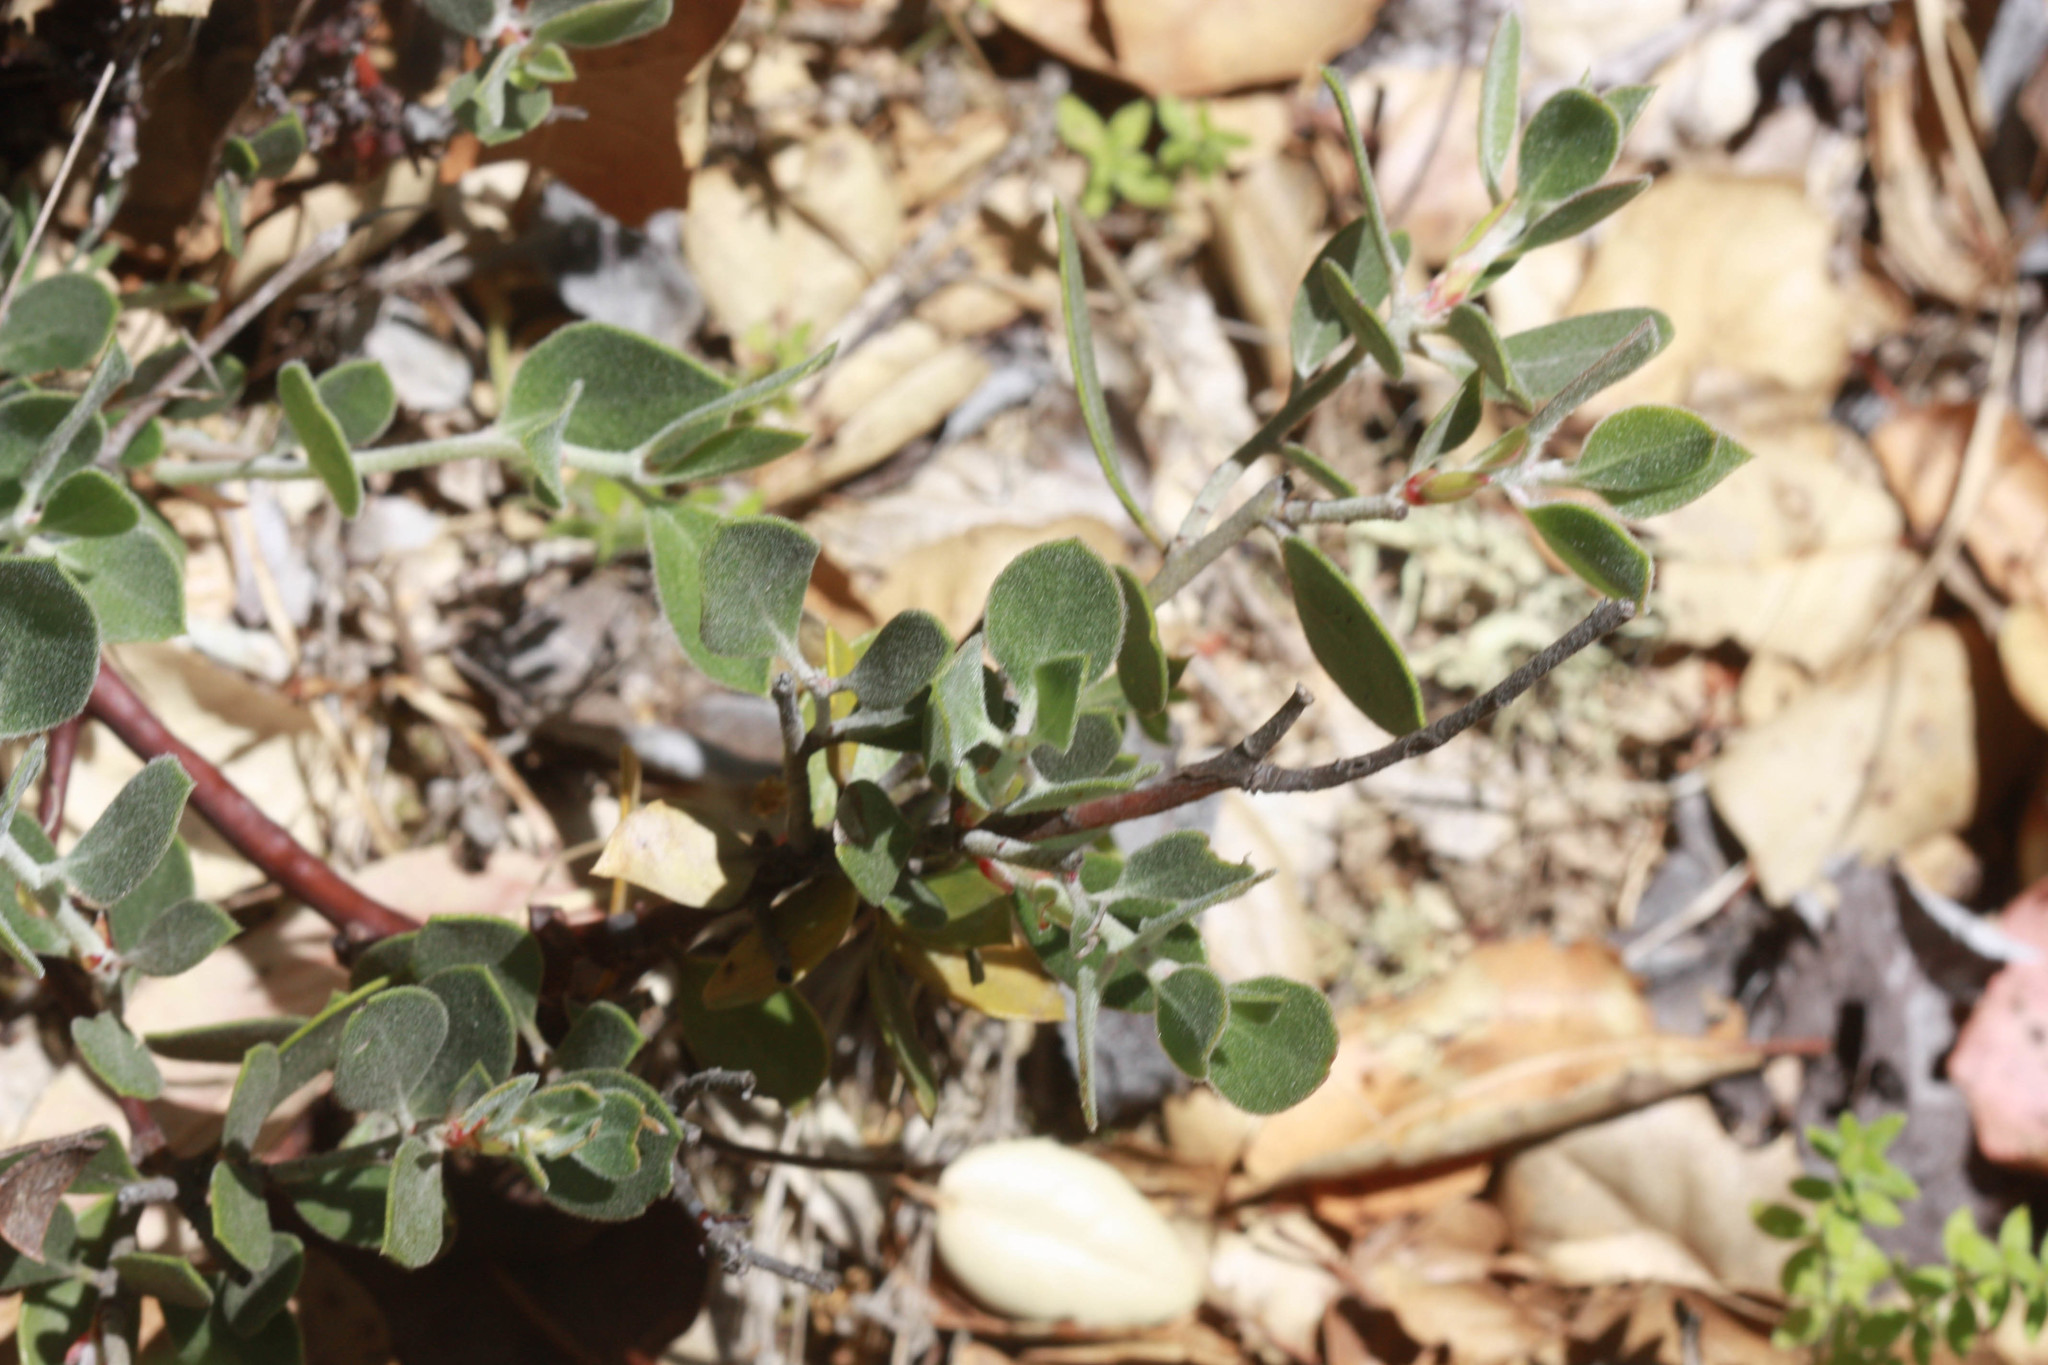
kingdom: Plantae
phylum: Tracheophyta
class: Magnoliopsida
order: Ericales
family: Ericaceae
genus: Arctostaphylos
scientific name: Arctostaphylos montana
